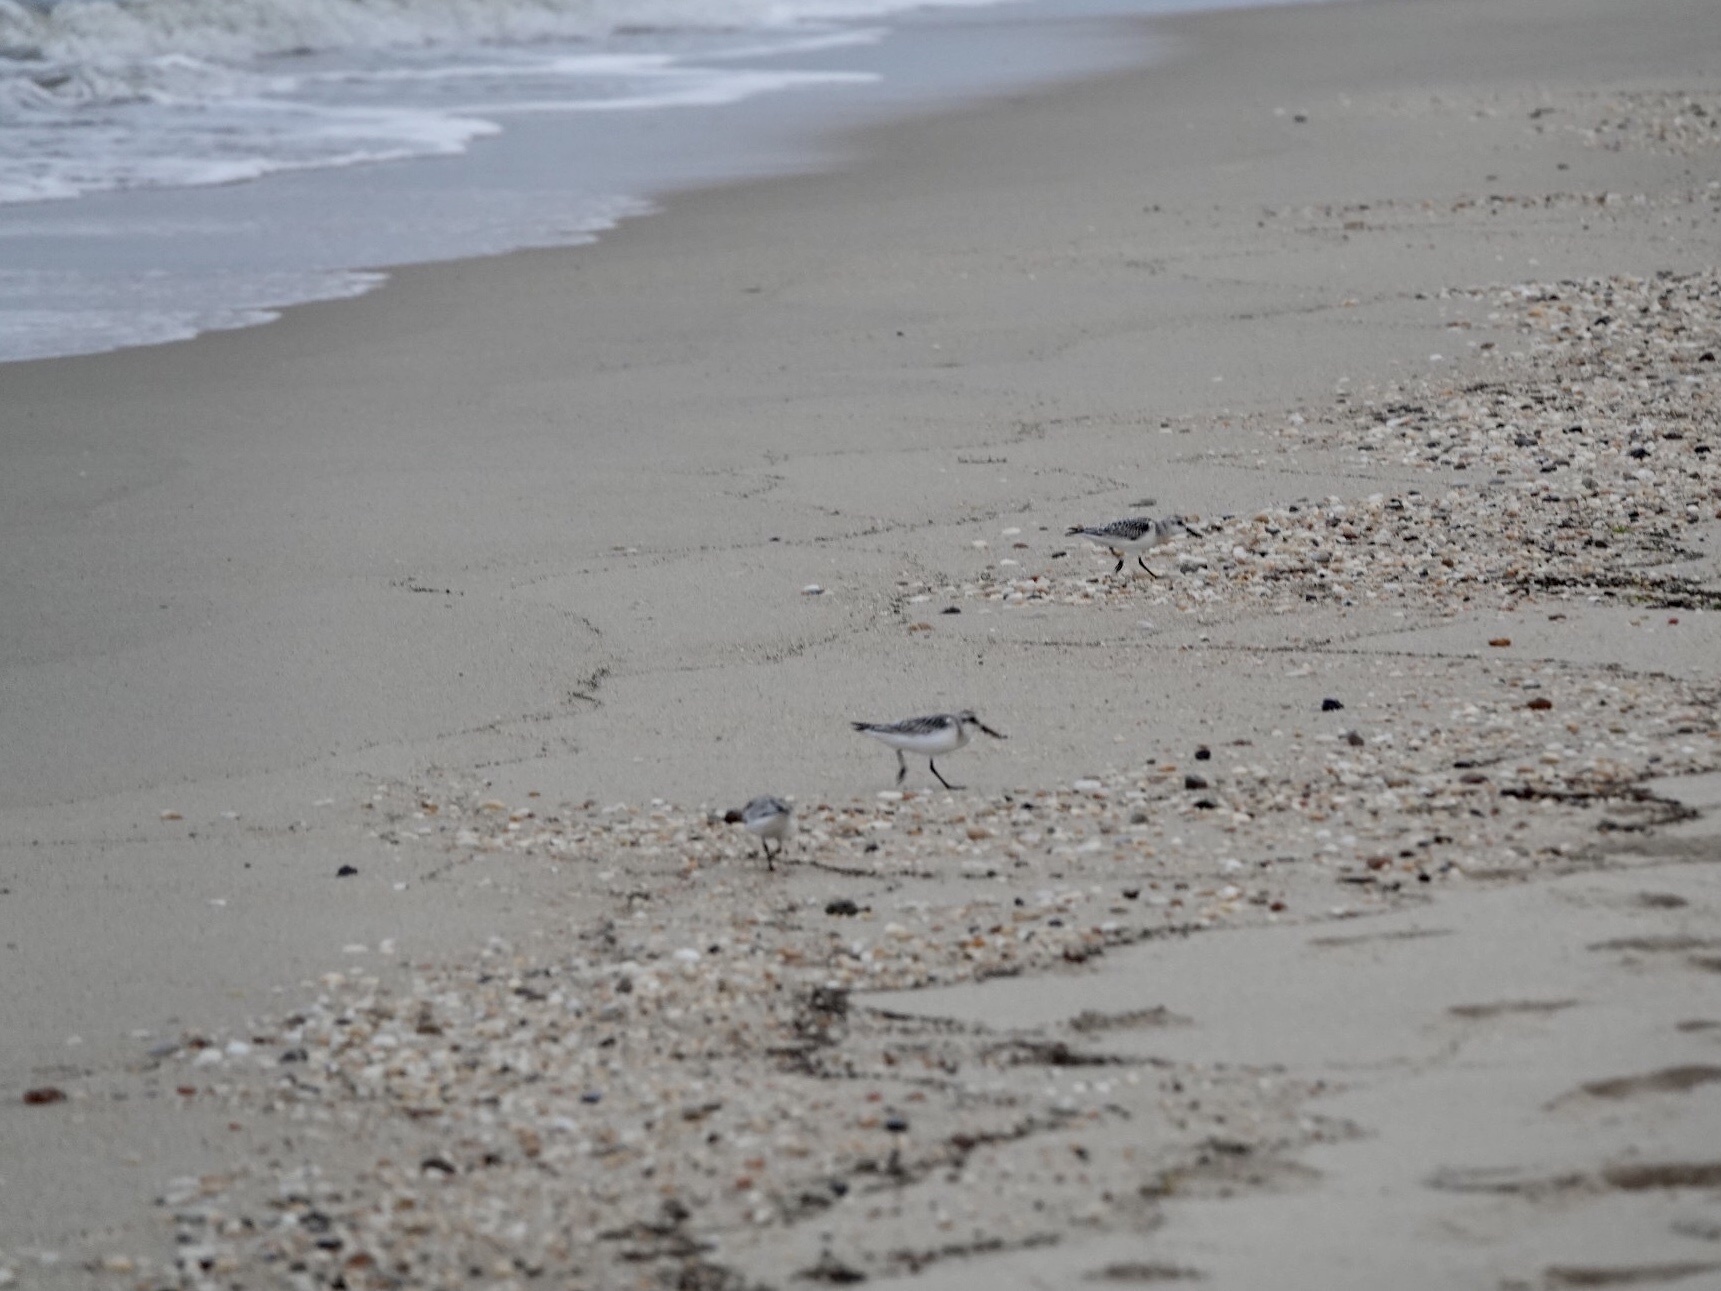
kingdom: Animalia
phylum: Chordata
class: Aves
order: Charadriiformes
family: Scolopacidae
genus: Calidris
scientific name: Calidris alba
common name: Sanderling
